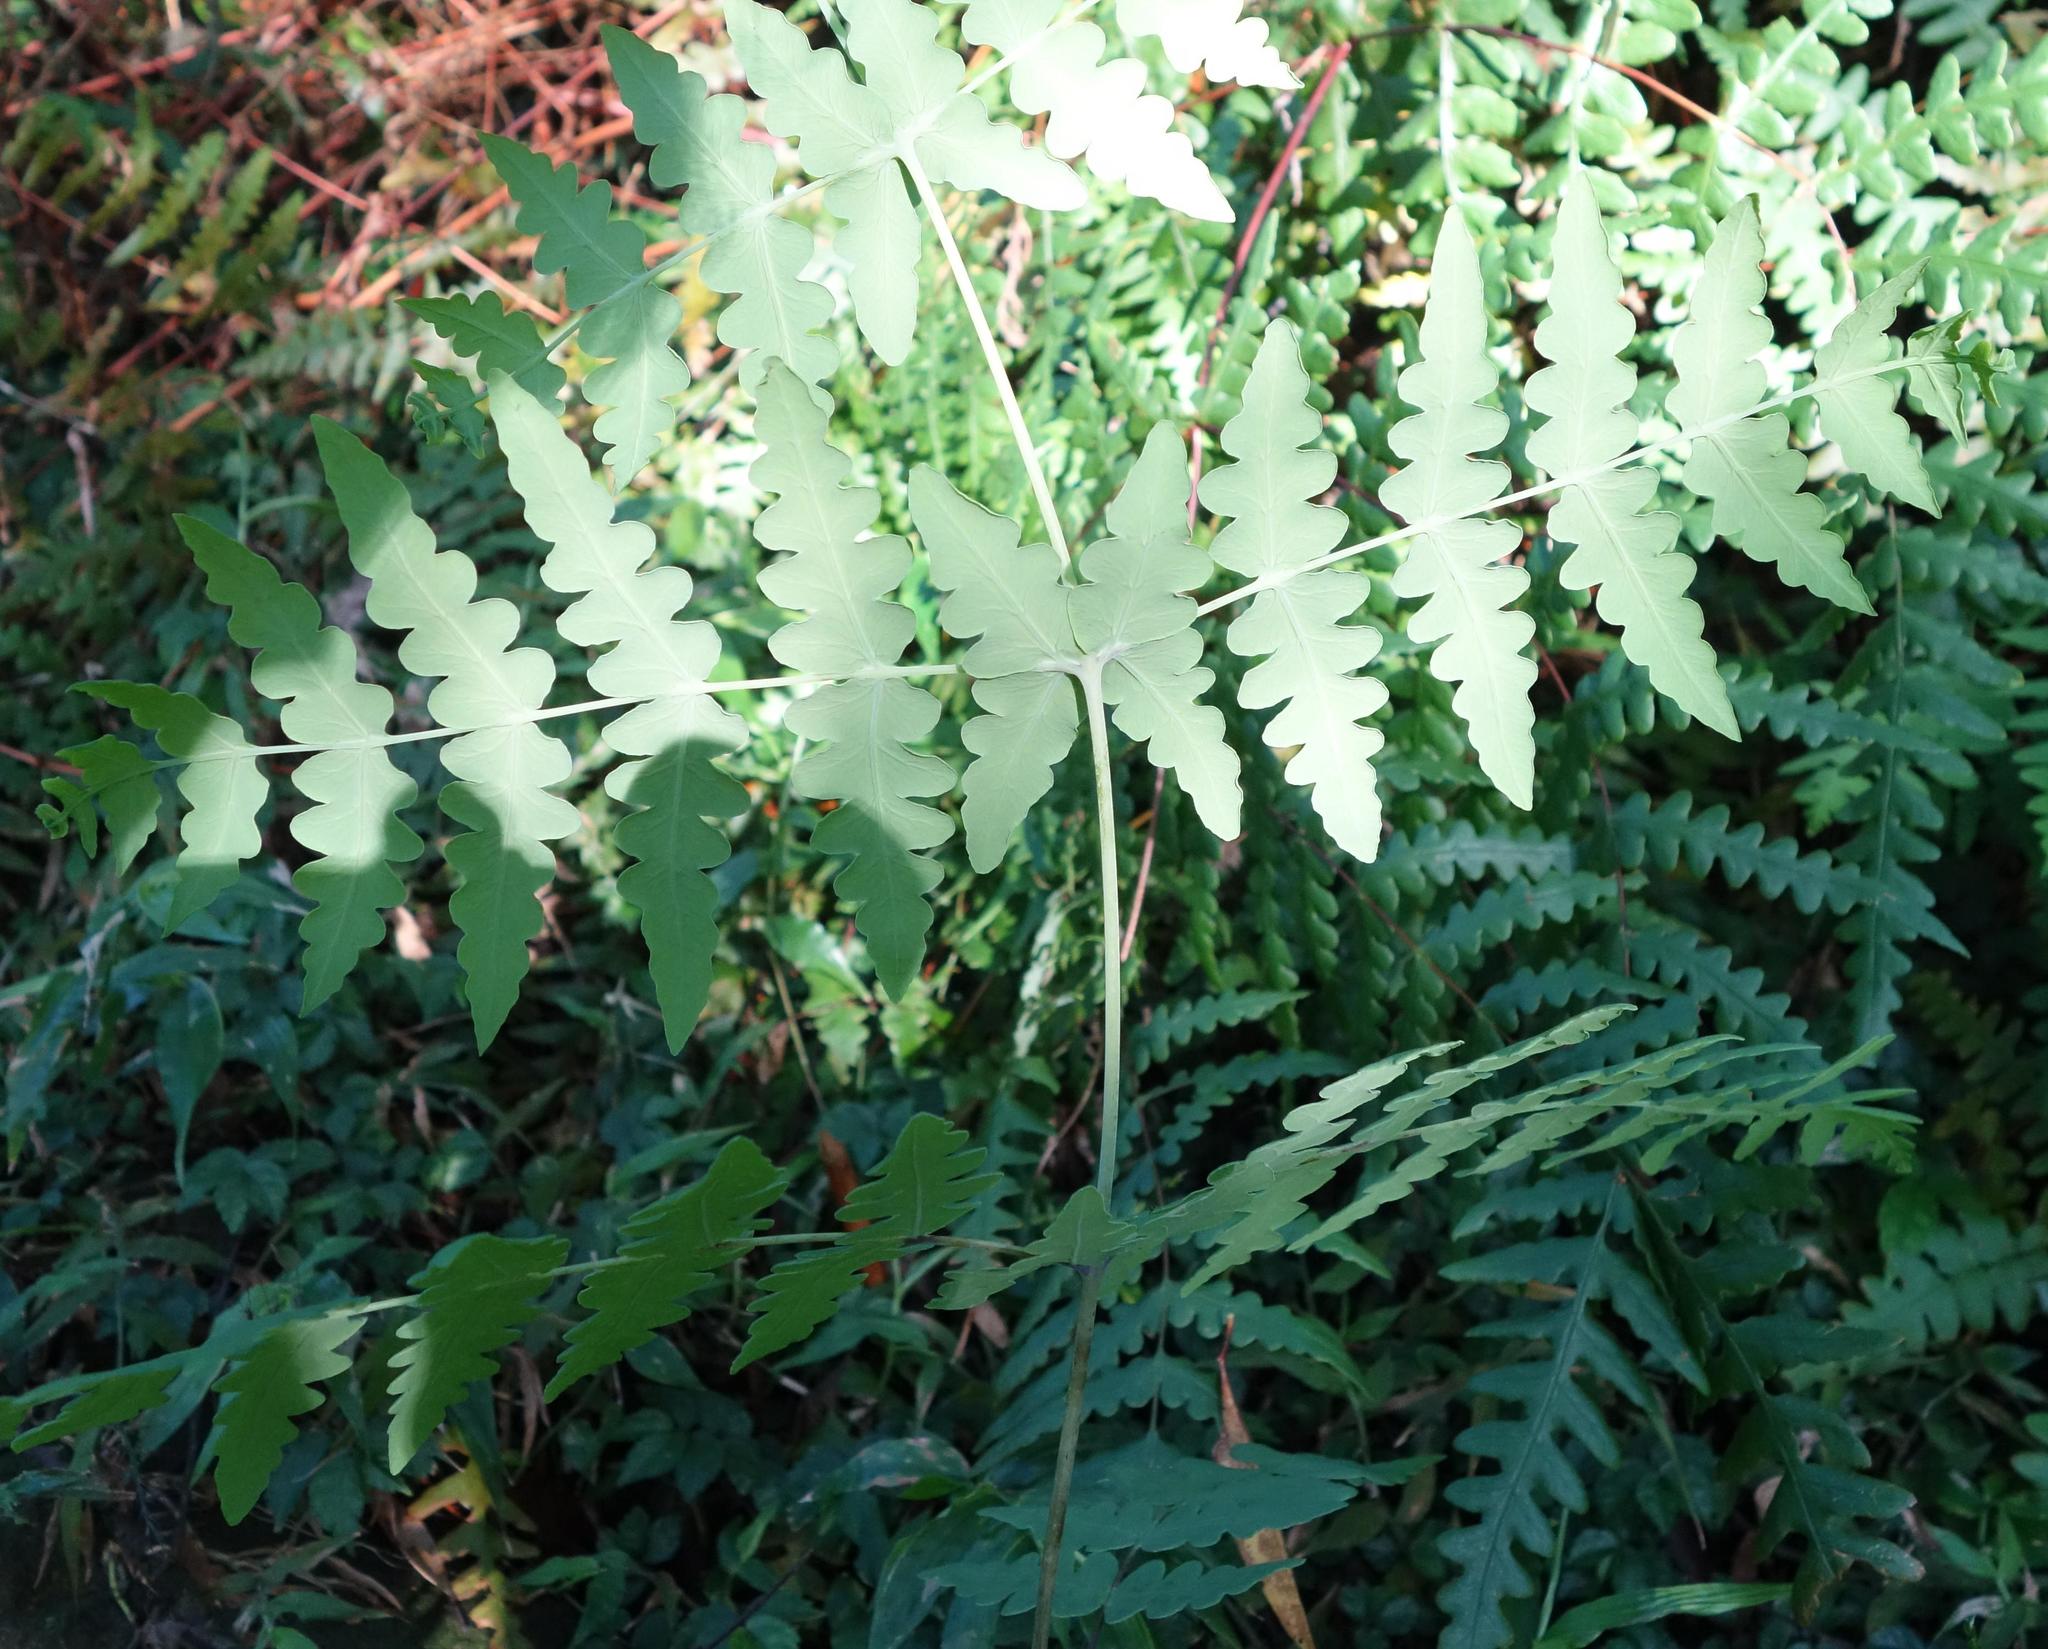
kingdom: Plantae
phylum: Tracheophyta
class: Polypodiopsida
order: Polypodiales
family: Dennstaedtiaceae
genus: Histiopteris
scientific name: Histiopteris incisa
